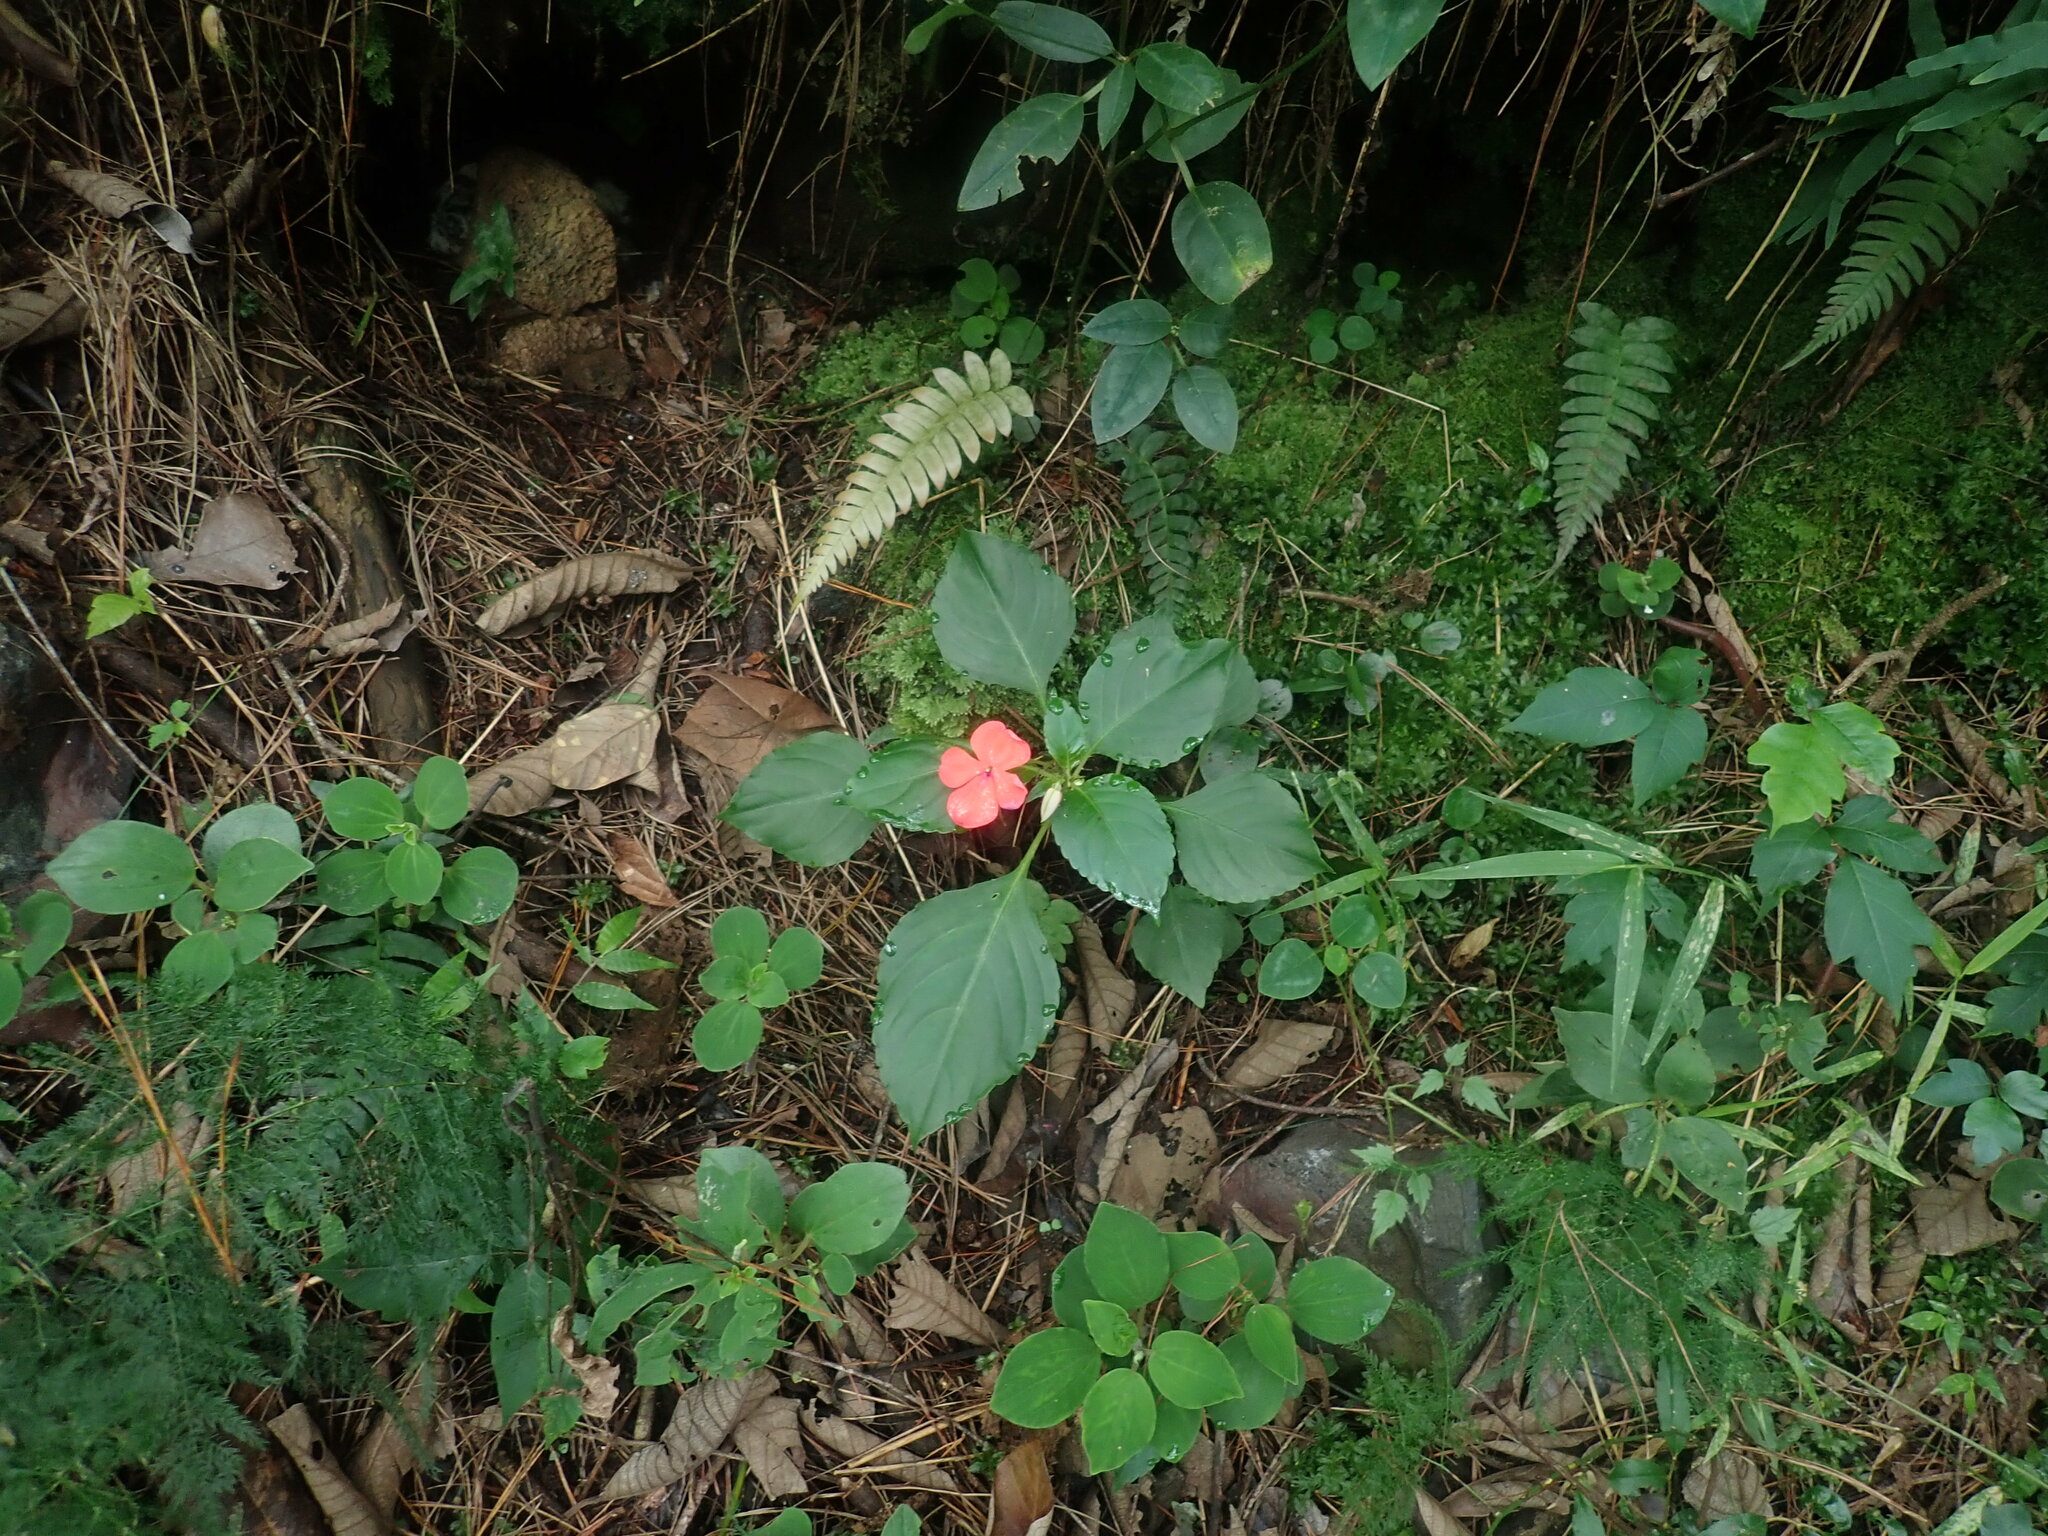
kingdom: Plantae
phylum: Tracheophyta
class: Magnoliopsida
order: Ericales
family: Balsaminaceae
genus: Impatiens
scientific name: Impatiens walleriana
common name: Buzzy lizzy
